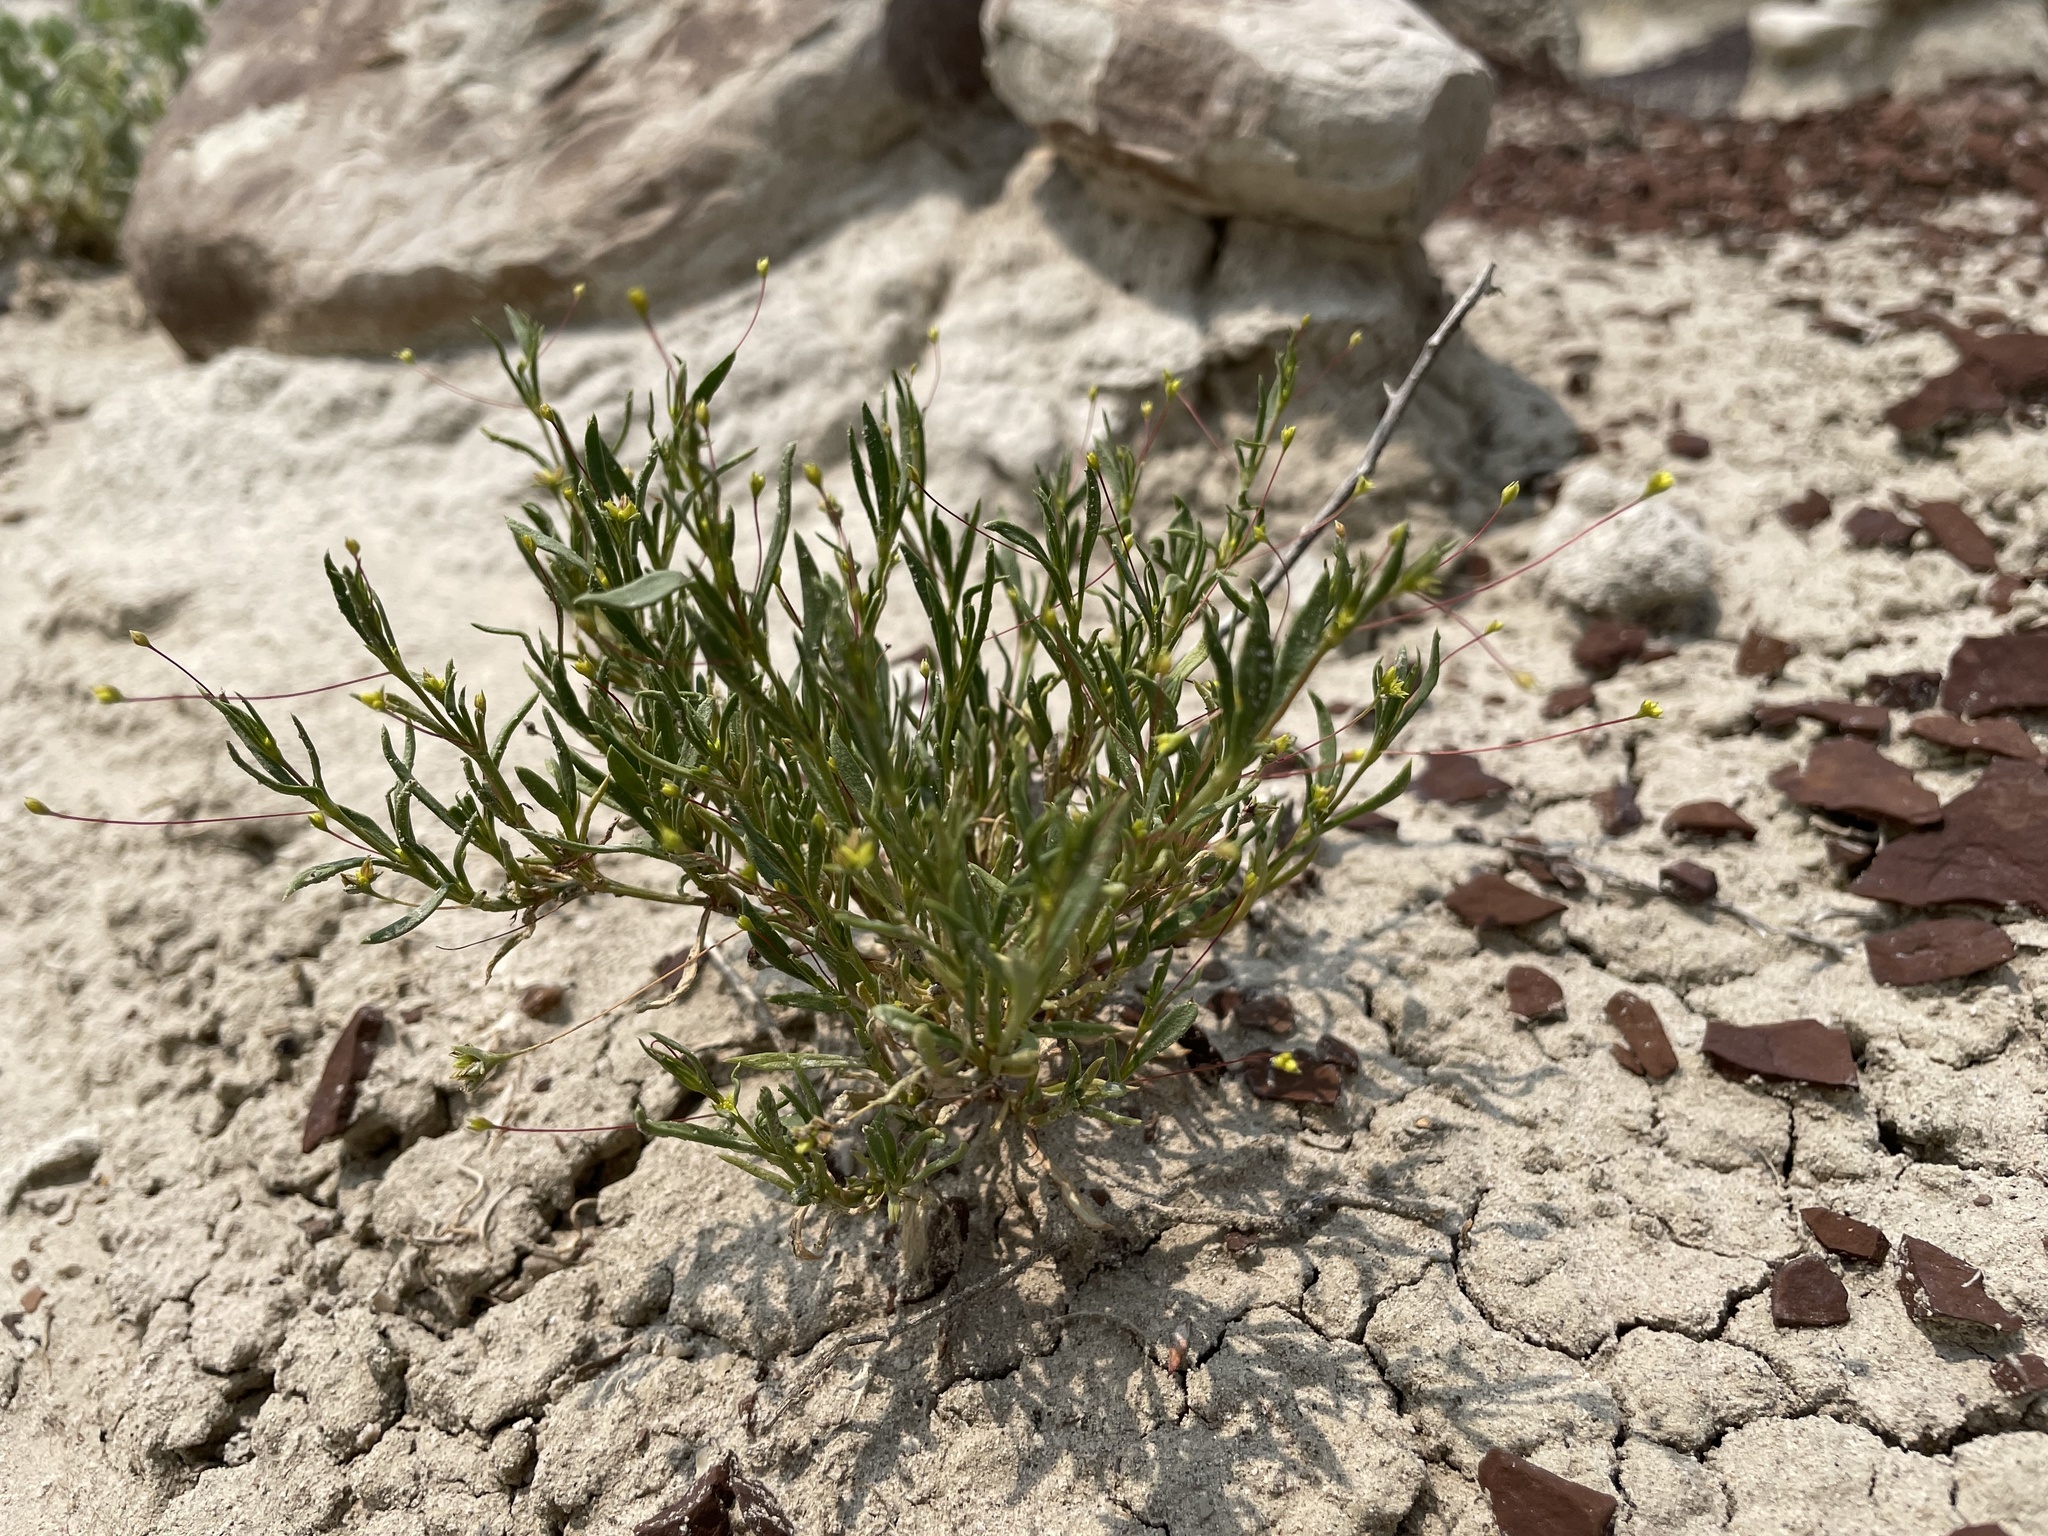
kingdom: Plantae
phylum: Tracheophyta
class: Magnoliopsida
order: Caryophyllales
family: Polygonaceae
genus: Stenogonum
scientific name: Stenogonum salsuginosum
